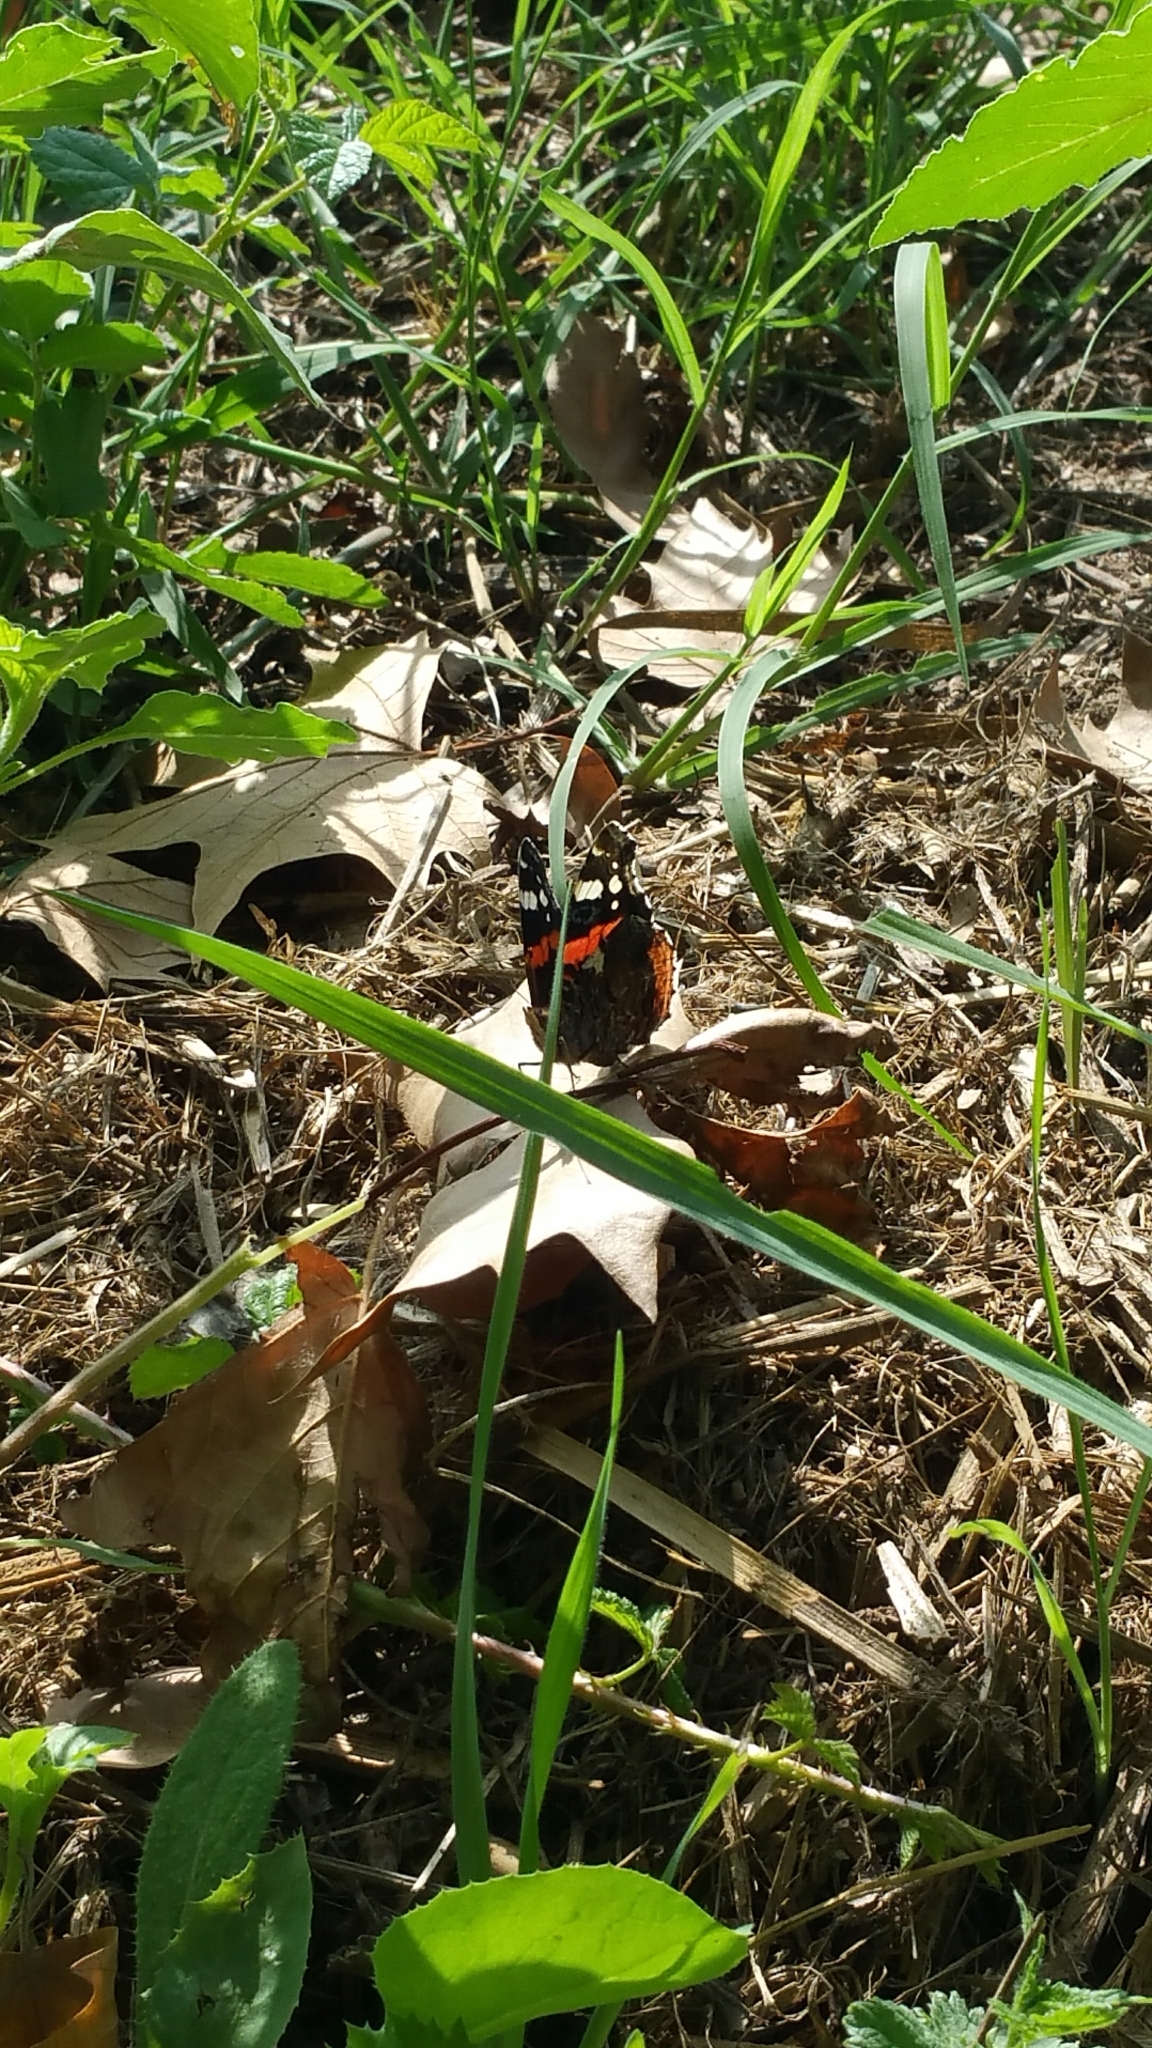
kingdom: Animalia
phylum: Arthropoda
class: Insecta
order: Lepidoptera
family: Nymphalidae
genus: Vanessa
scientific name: Vanessa atalanta
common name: Red admiral
